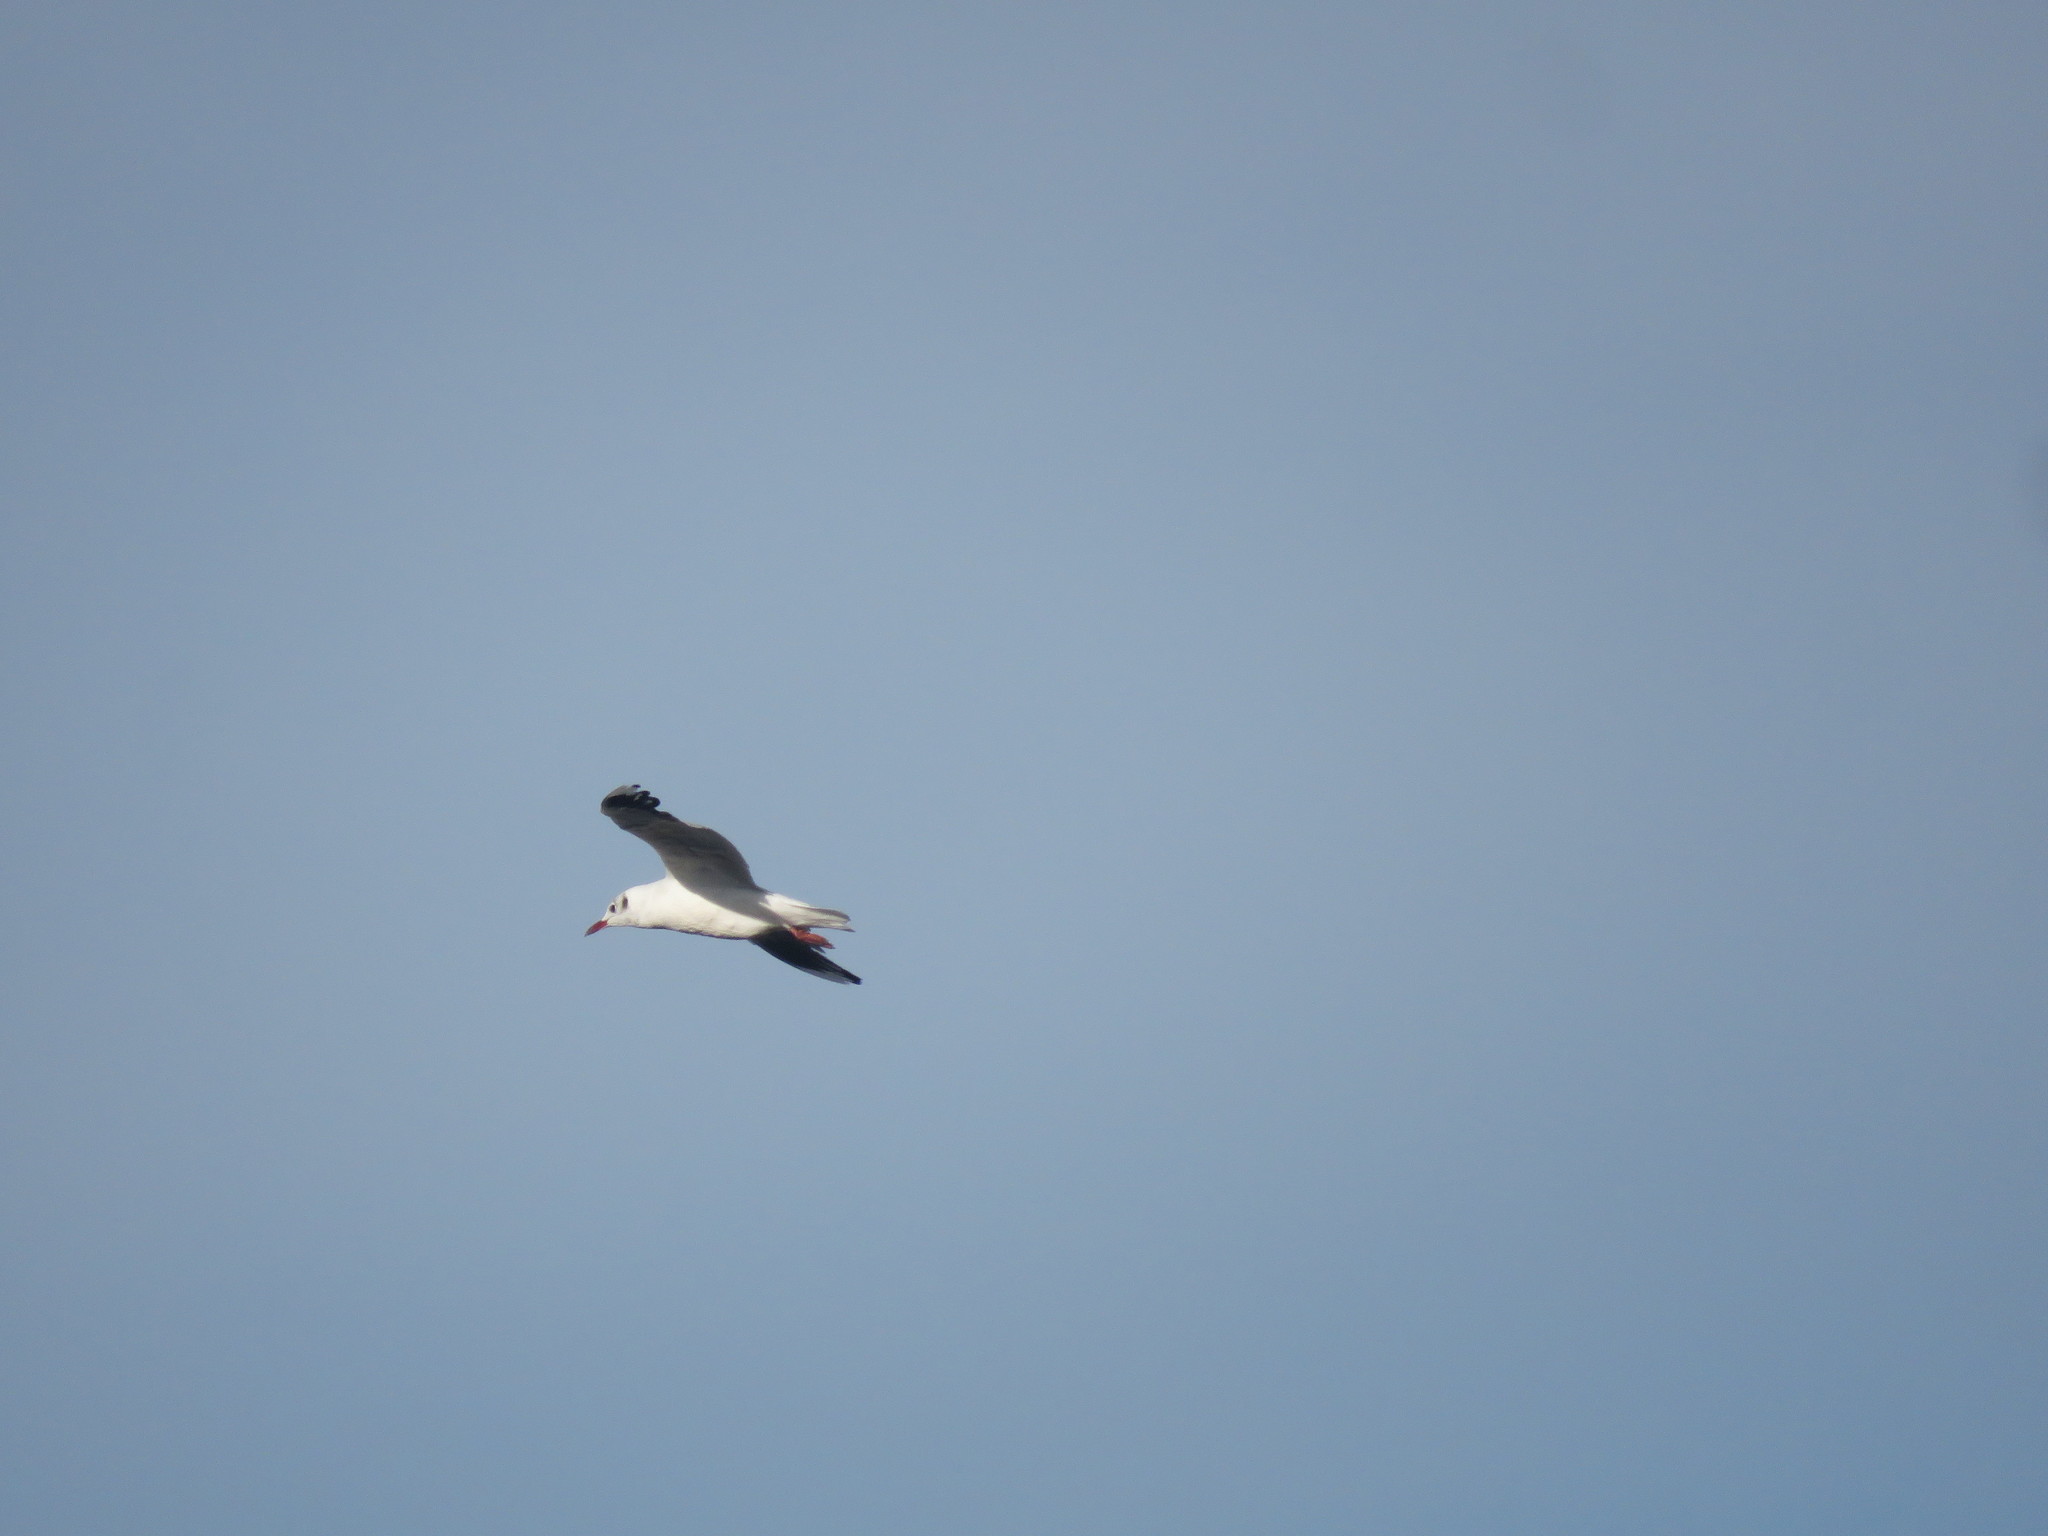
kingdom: Animalia
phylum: Chordata
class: Aves
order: Charadriiformes
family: Laridae
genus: Chroicocephalus
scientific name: Chroicocephalus maculipennis
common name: Brown-hooded gull
